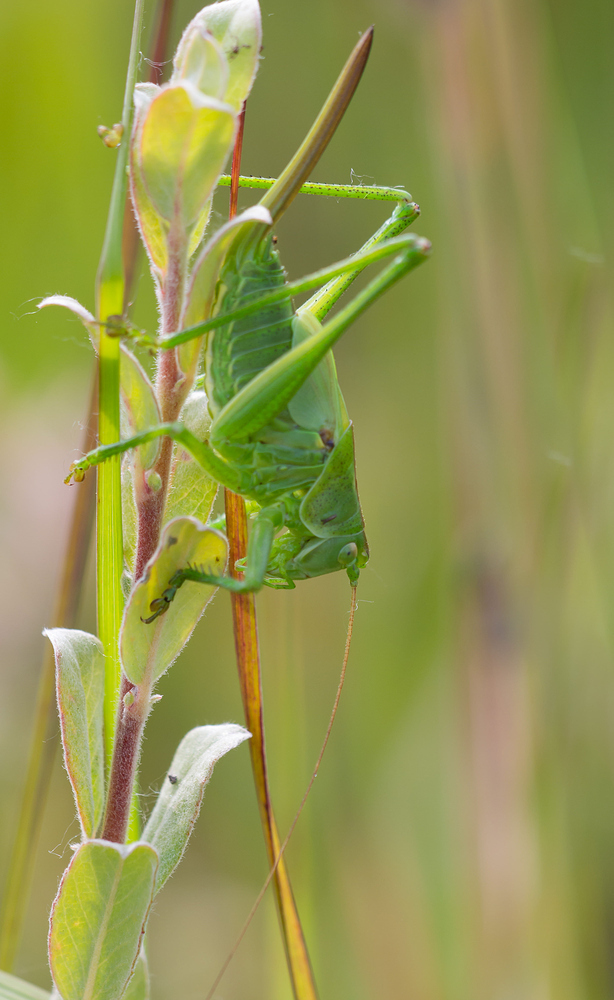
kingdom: Animalia
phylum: Arthropoda
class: Insecta
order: Orthoptera
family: Tettigoniidae
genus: Tettigonia
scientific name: Tettigonia viridissima
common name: Great green bush-cricket
